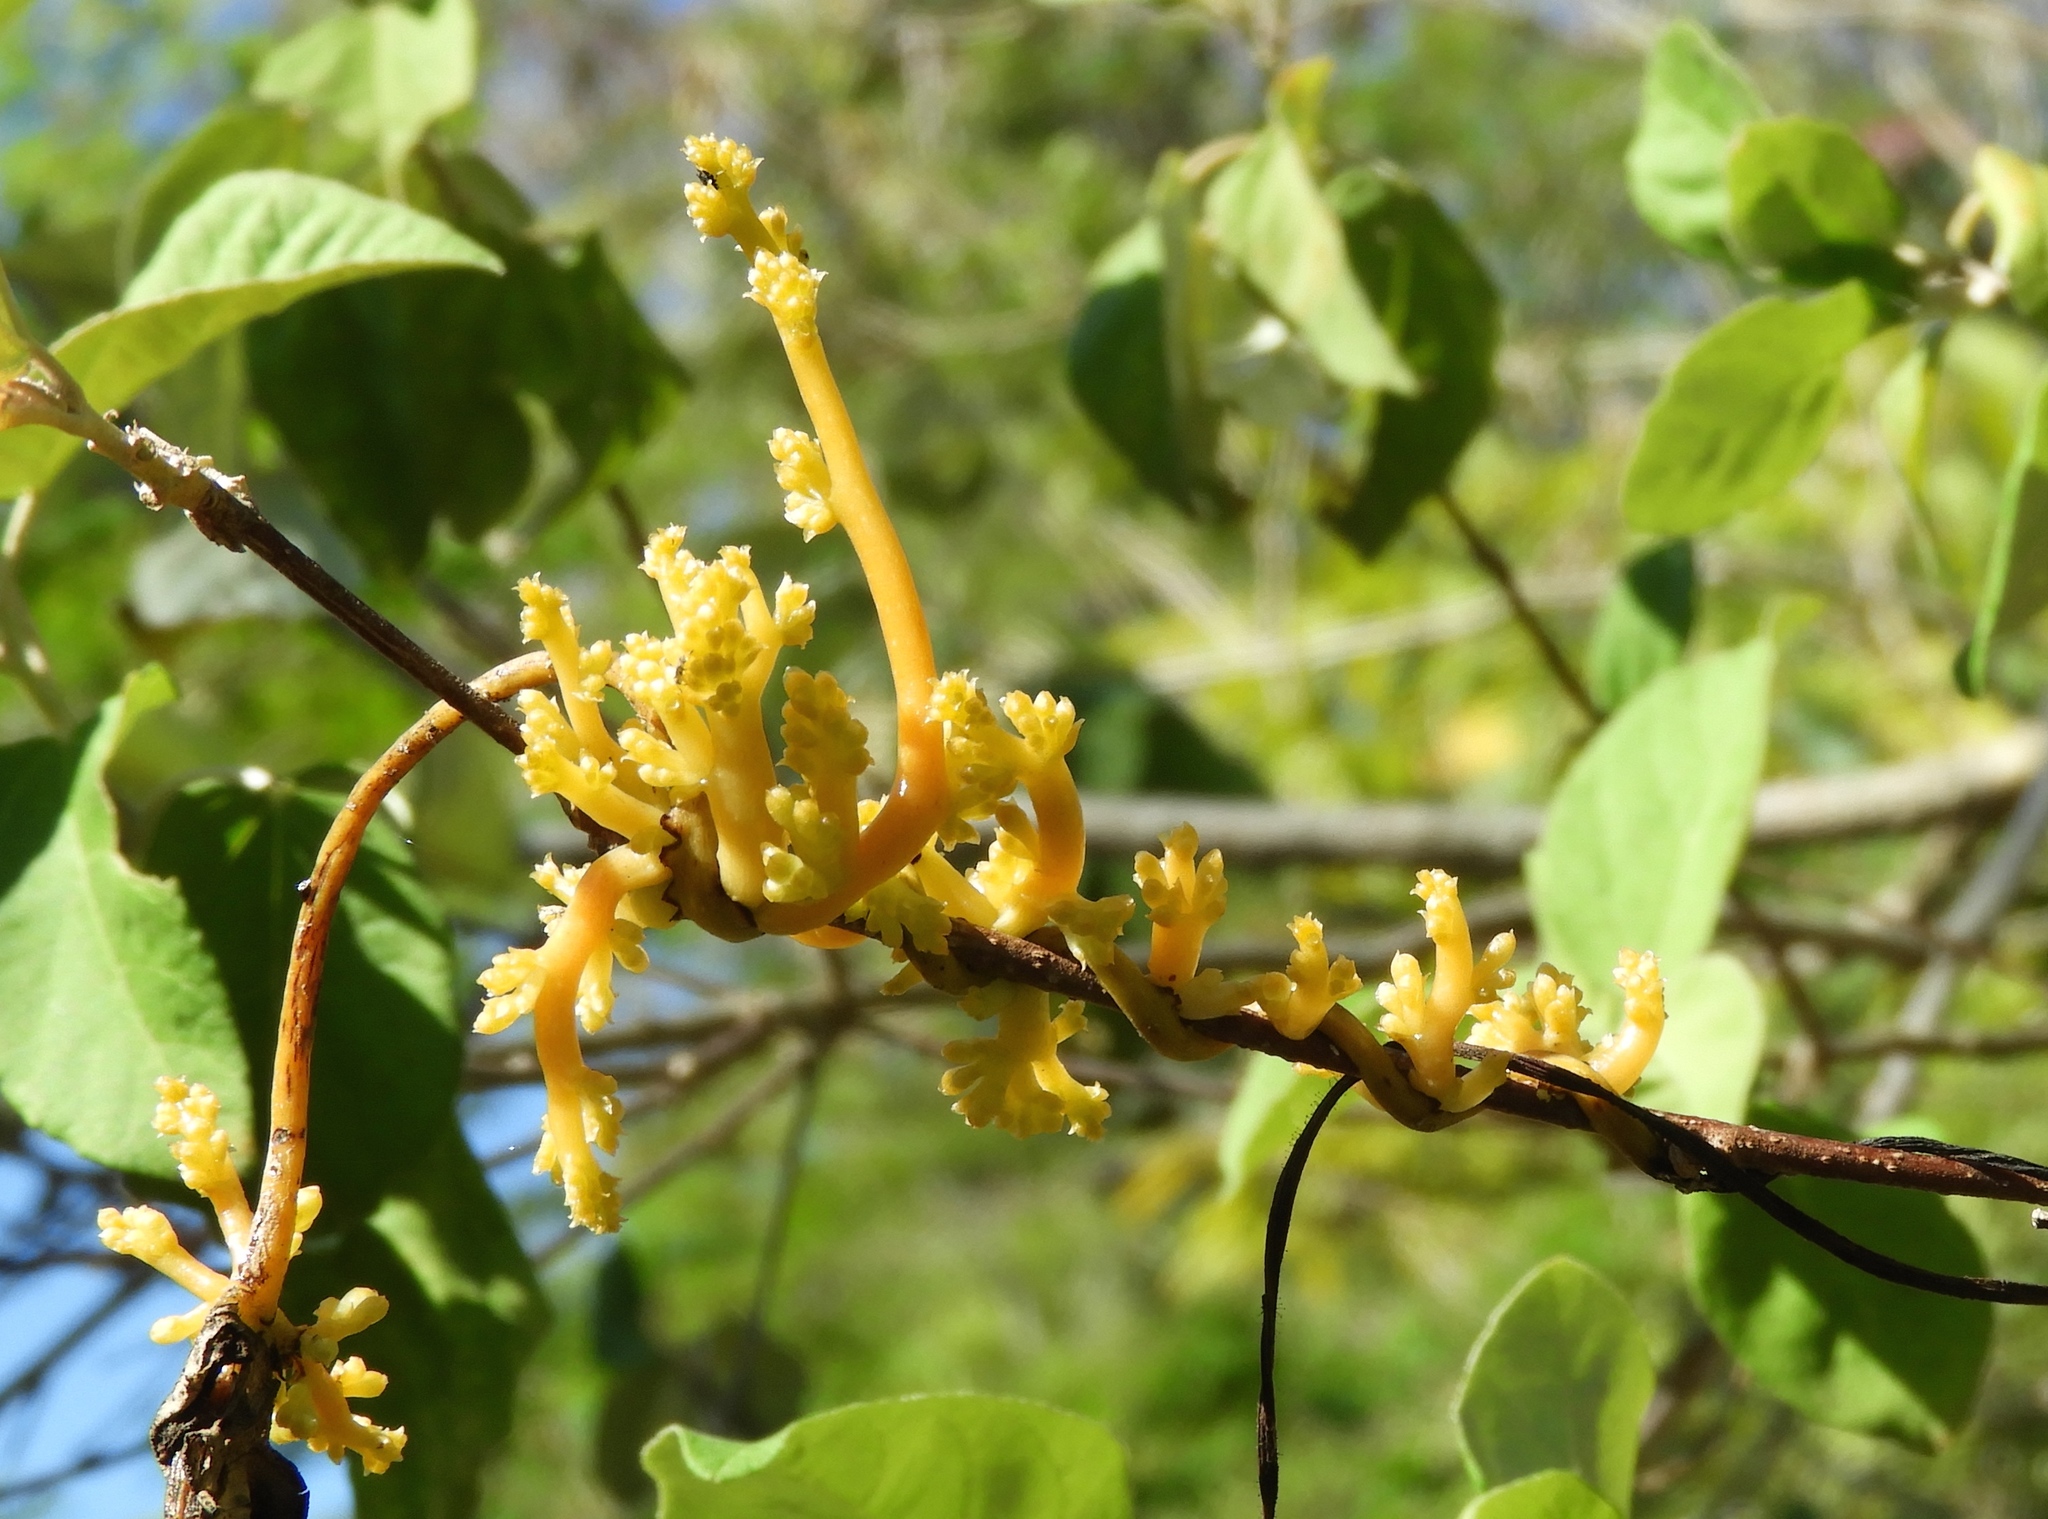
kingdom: Plantae
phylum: Tracheophyta
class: Magnoliopsida
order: Solanales
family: Convolvulaceae
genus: Cuscuta
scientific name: Cuscuta
